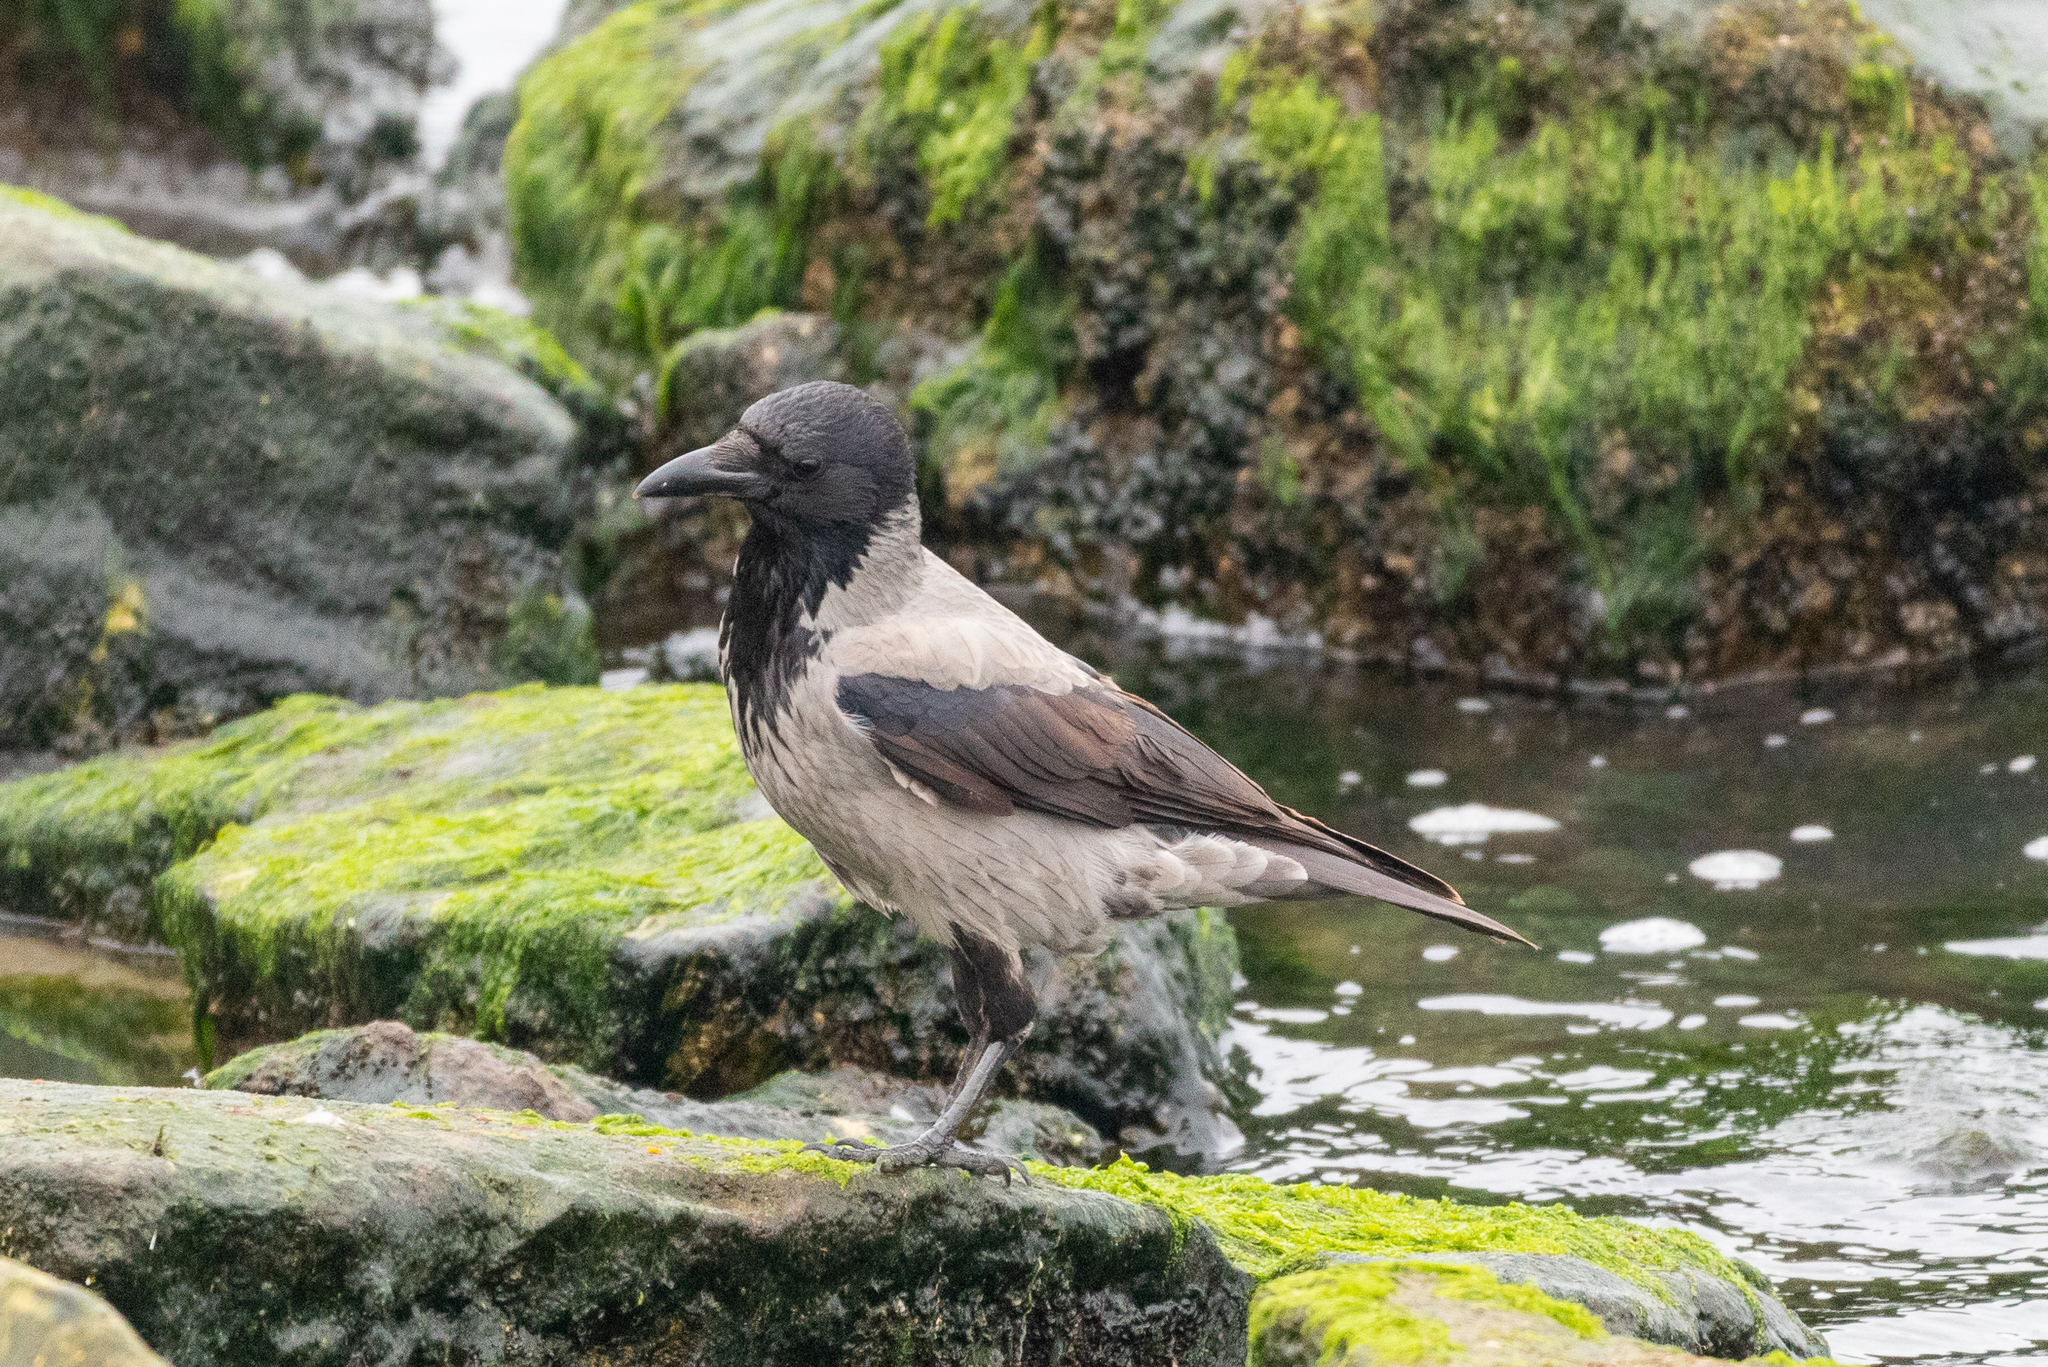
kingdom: Animalia
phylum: Chordata
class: Aves
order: Passeriformes
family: Corvidae
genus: Corvus
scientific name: Corvus cornix
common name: Hooded crow
